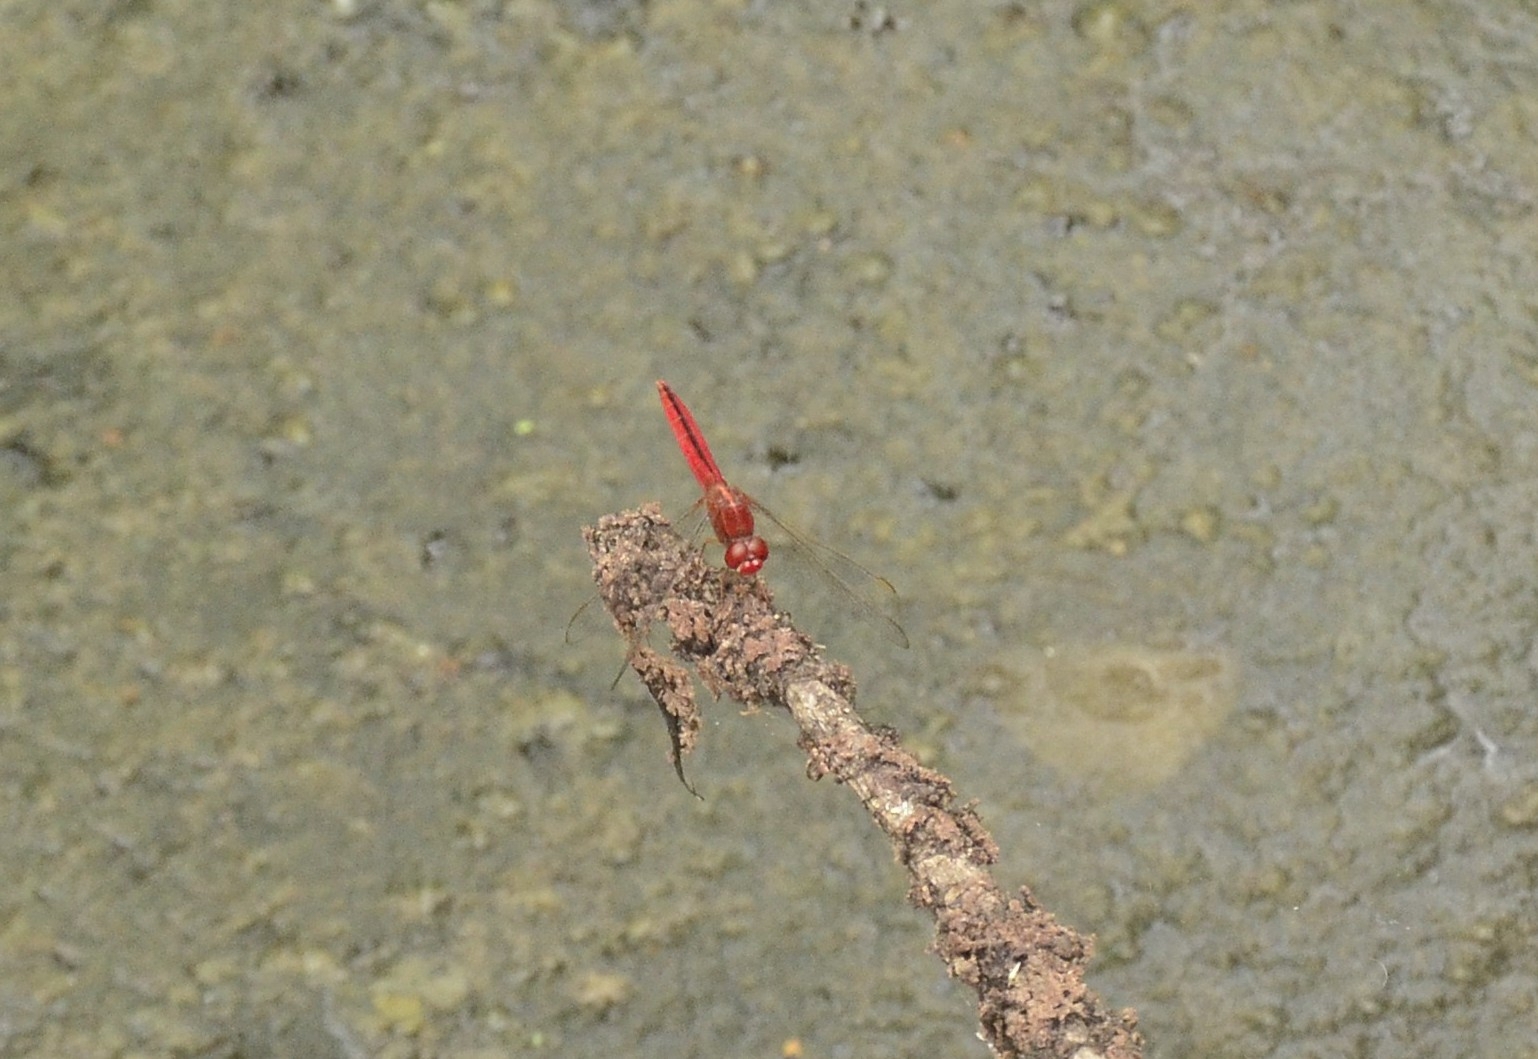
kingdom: Animalia
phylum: Arthropoda
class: Insecta
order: Odonata
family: Libellulidae
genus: Crocothemis
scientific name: Crocothemis servilia
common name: Scarlet skimmer
